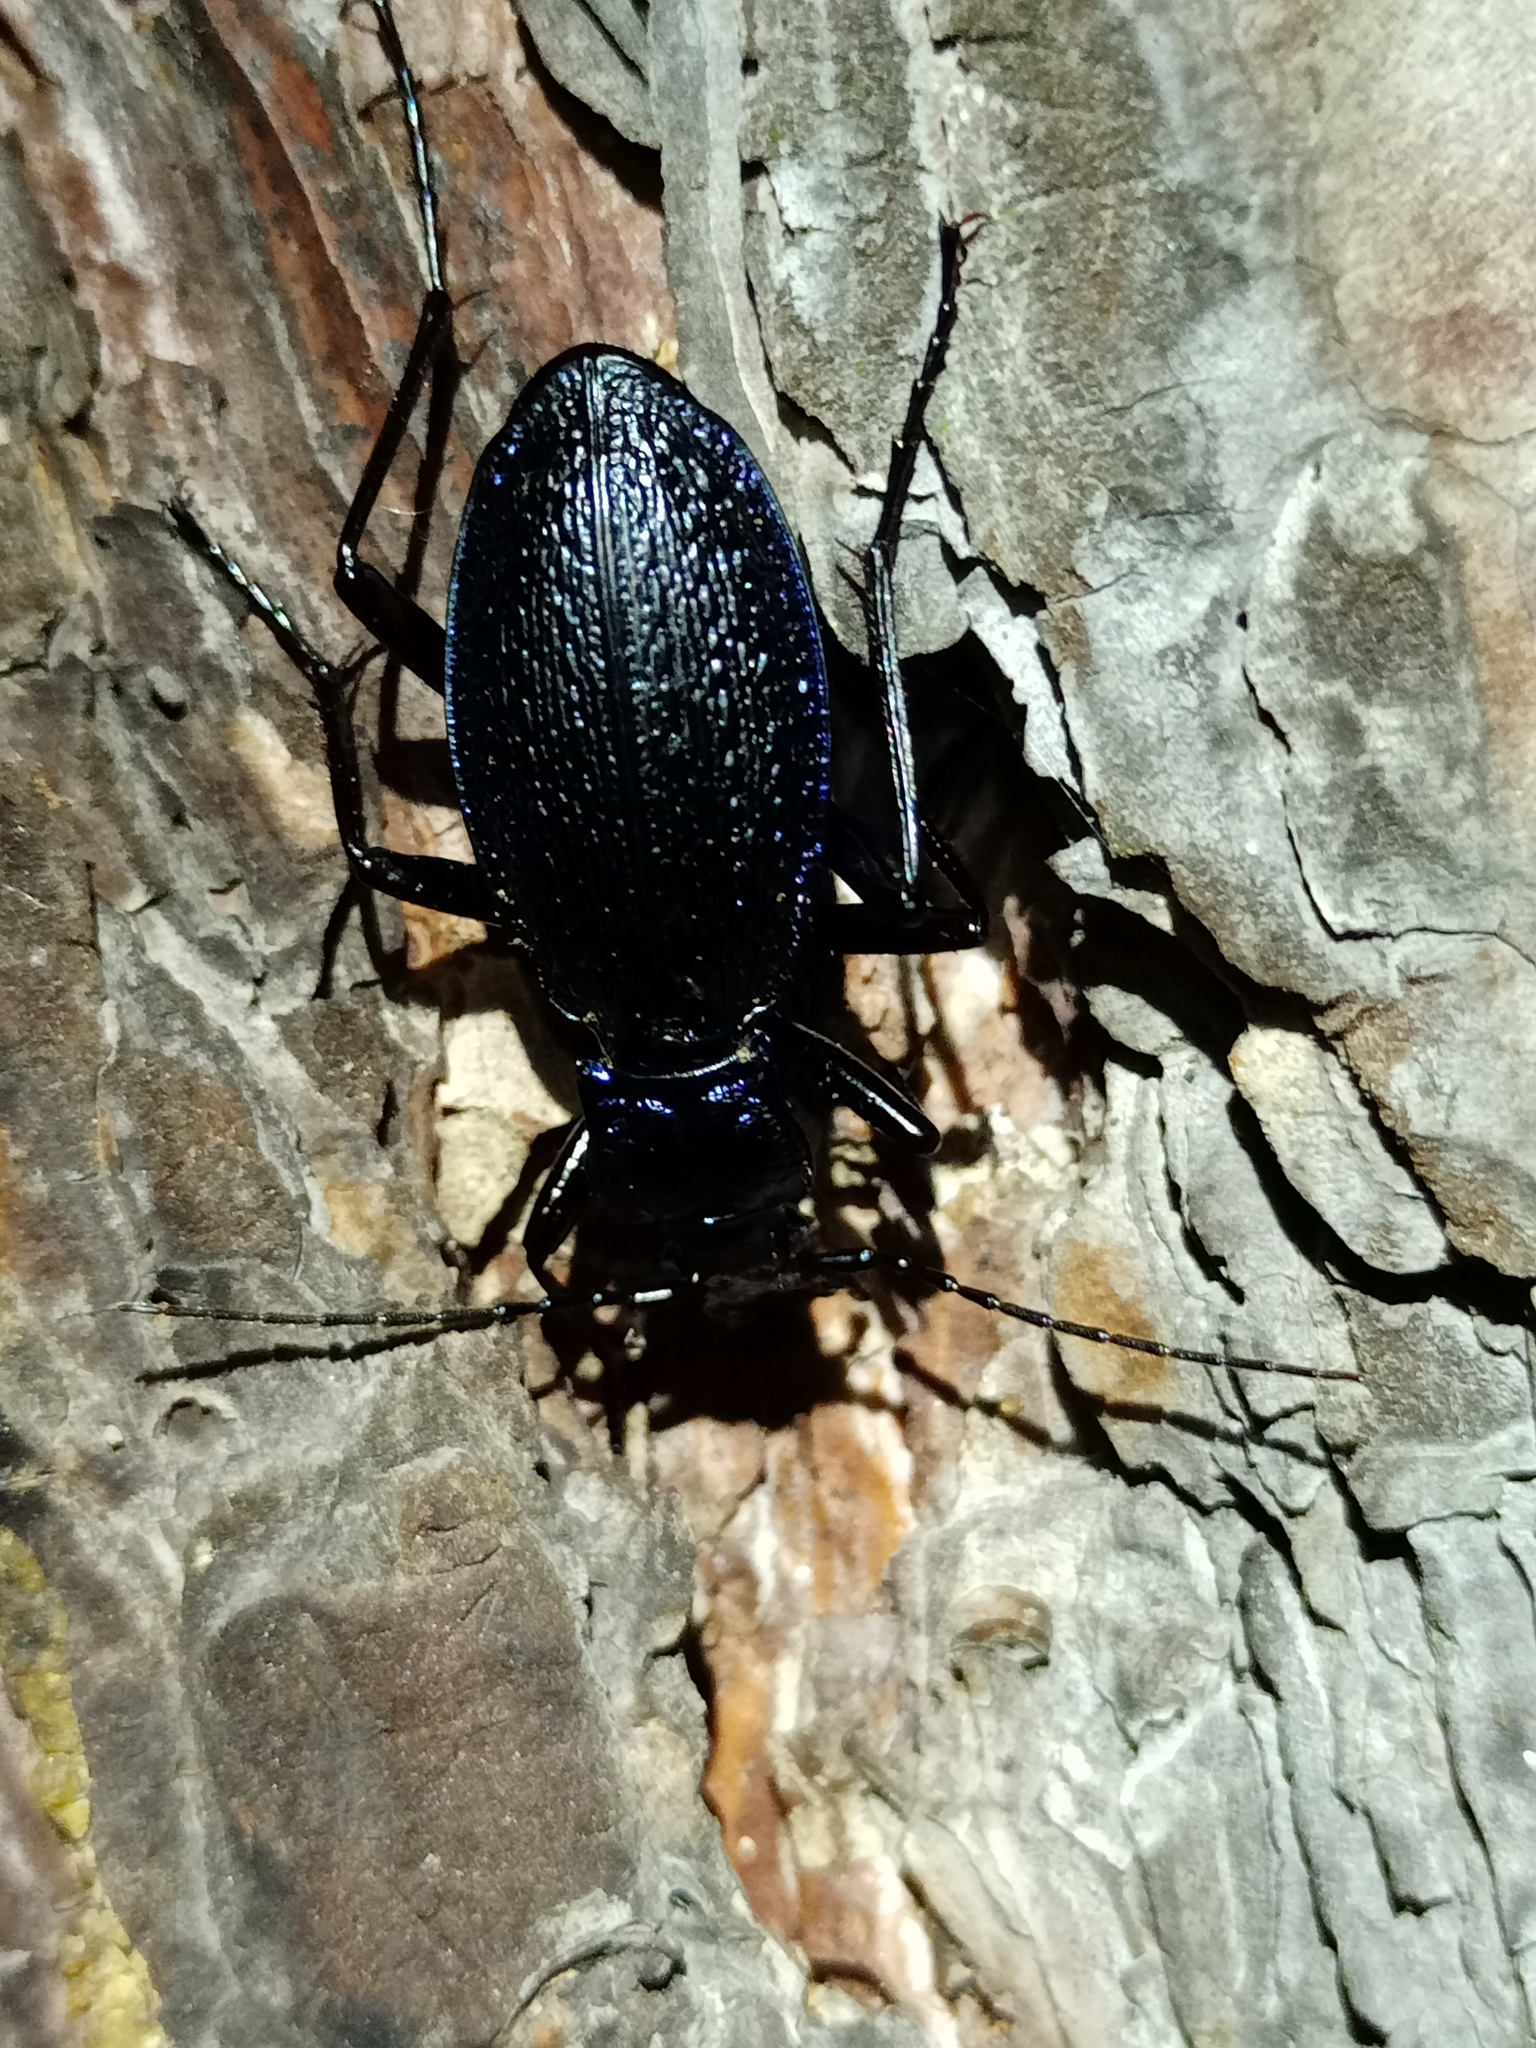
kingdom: Animalia
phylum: Arthropoda
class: Insecta
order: Coleoptera
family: Carabidae
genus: Carabus
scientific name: Carabus intricatus
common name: Blue ground beetle
